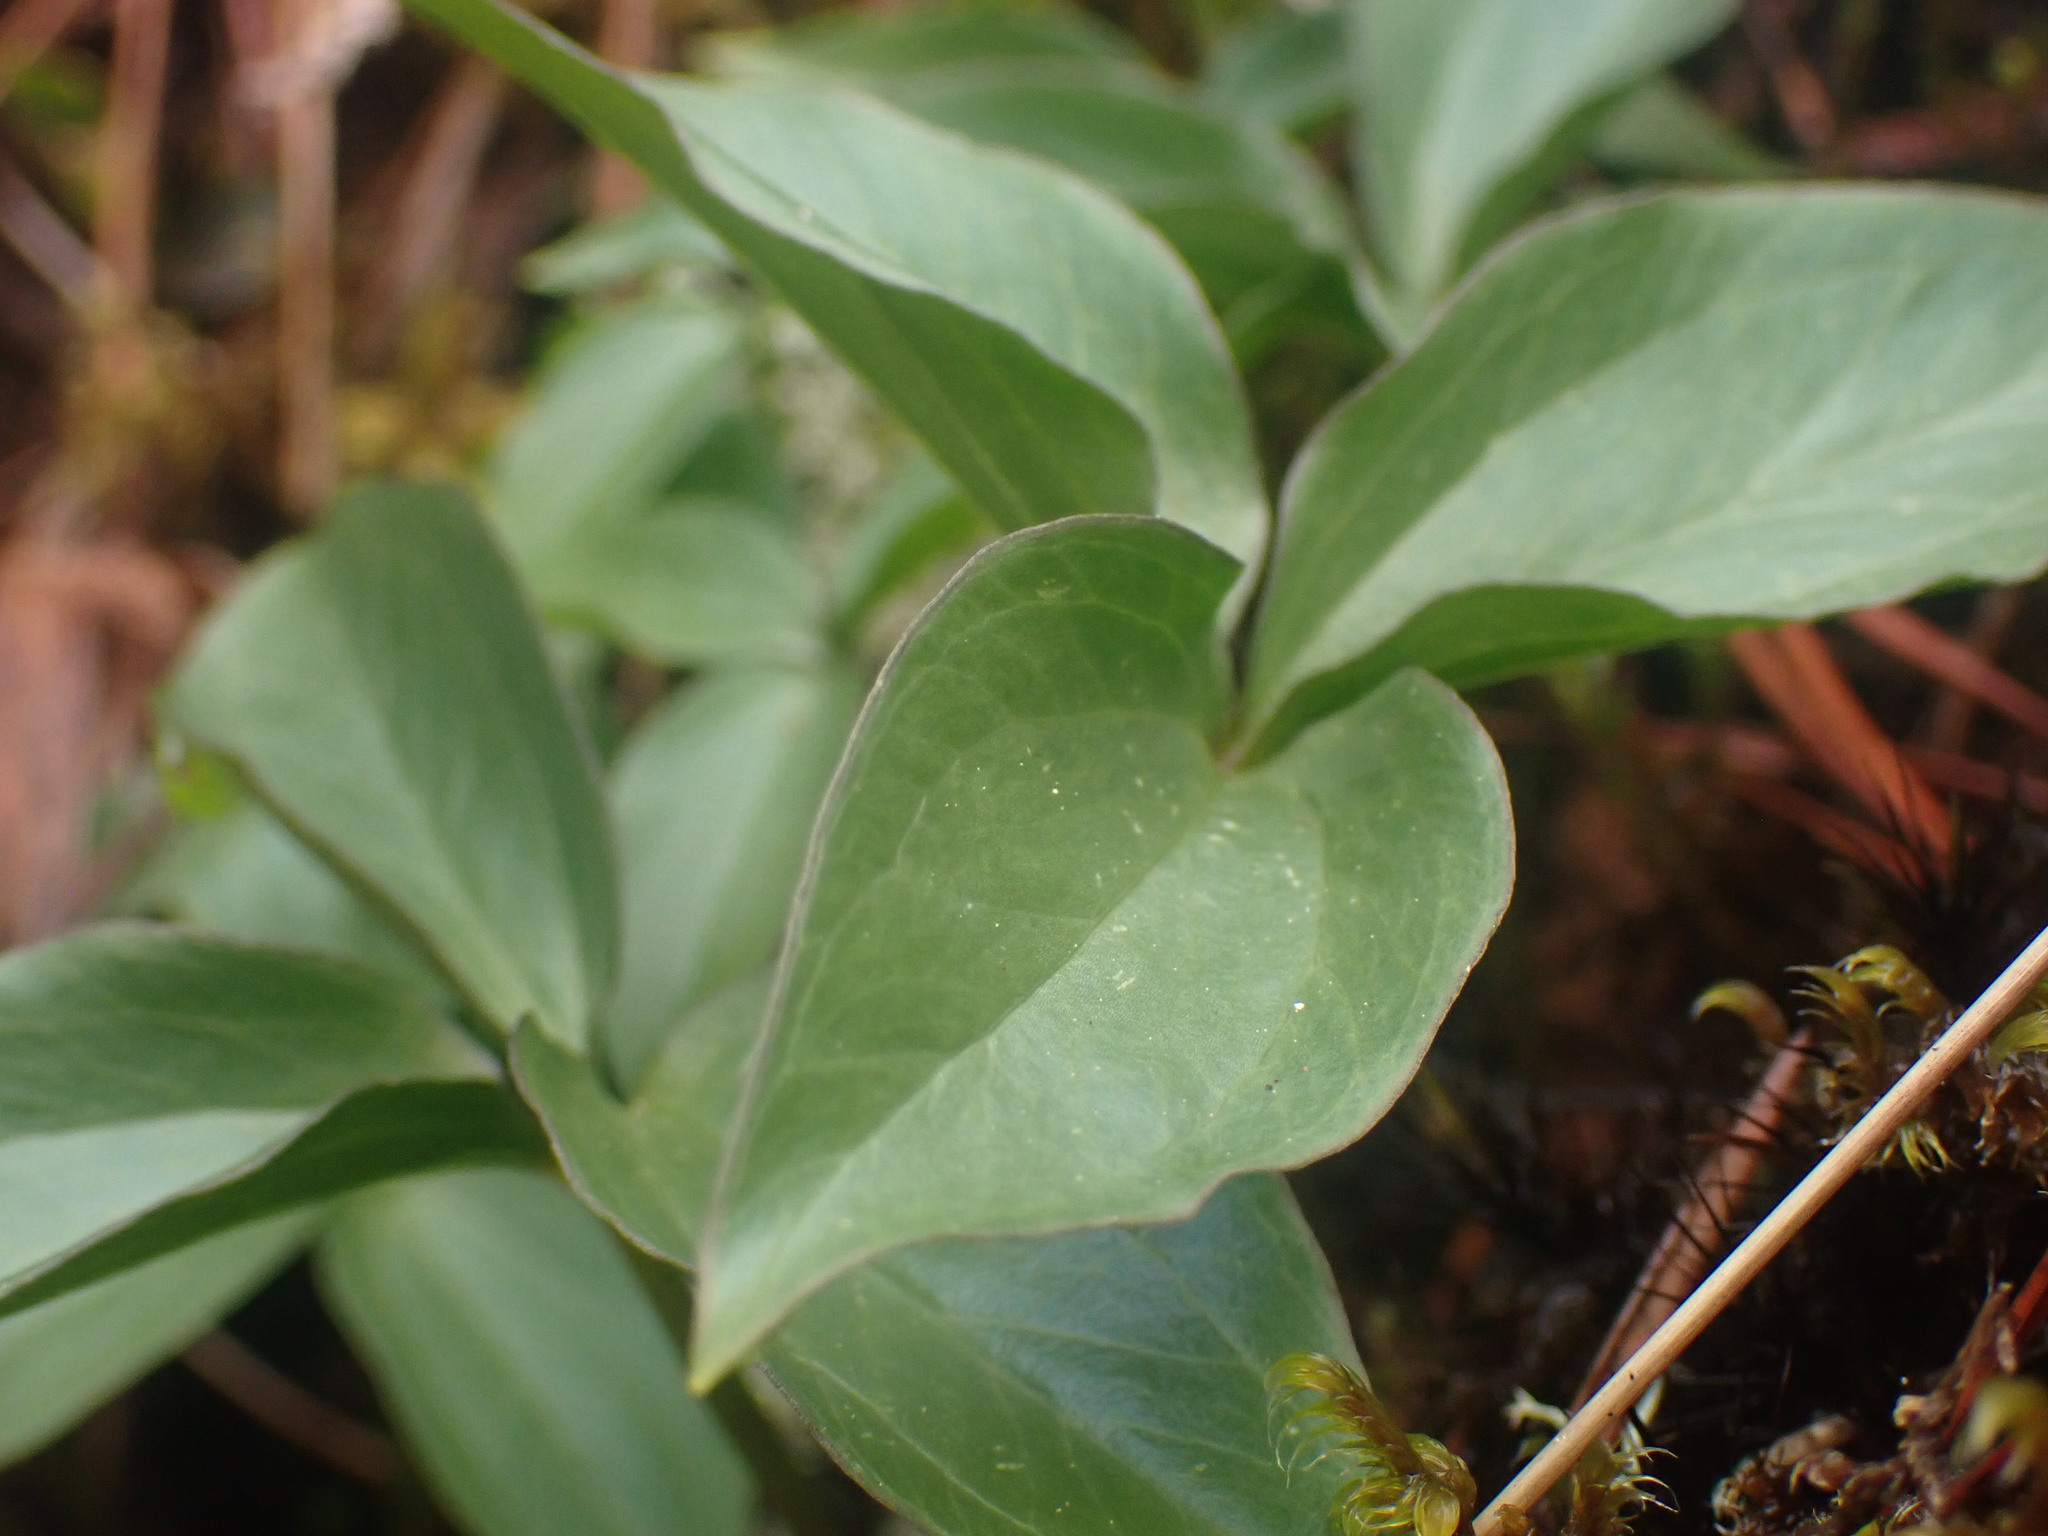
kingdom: Plantae
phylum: Tracheophyta
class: Liliopsida
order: Liliales
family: Melanthiaceae
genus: Trillium
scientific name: Trillium hibbersonii
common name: Hibberson's trillium
